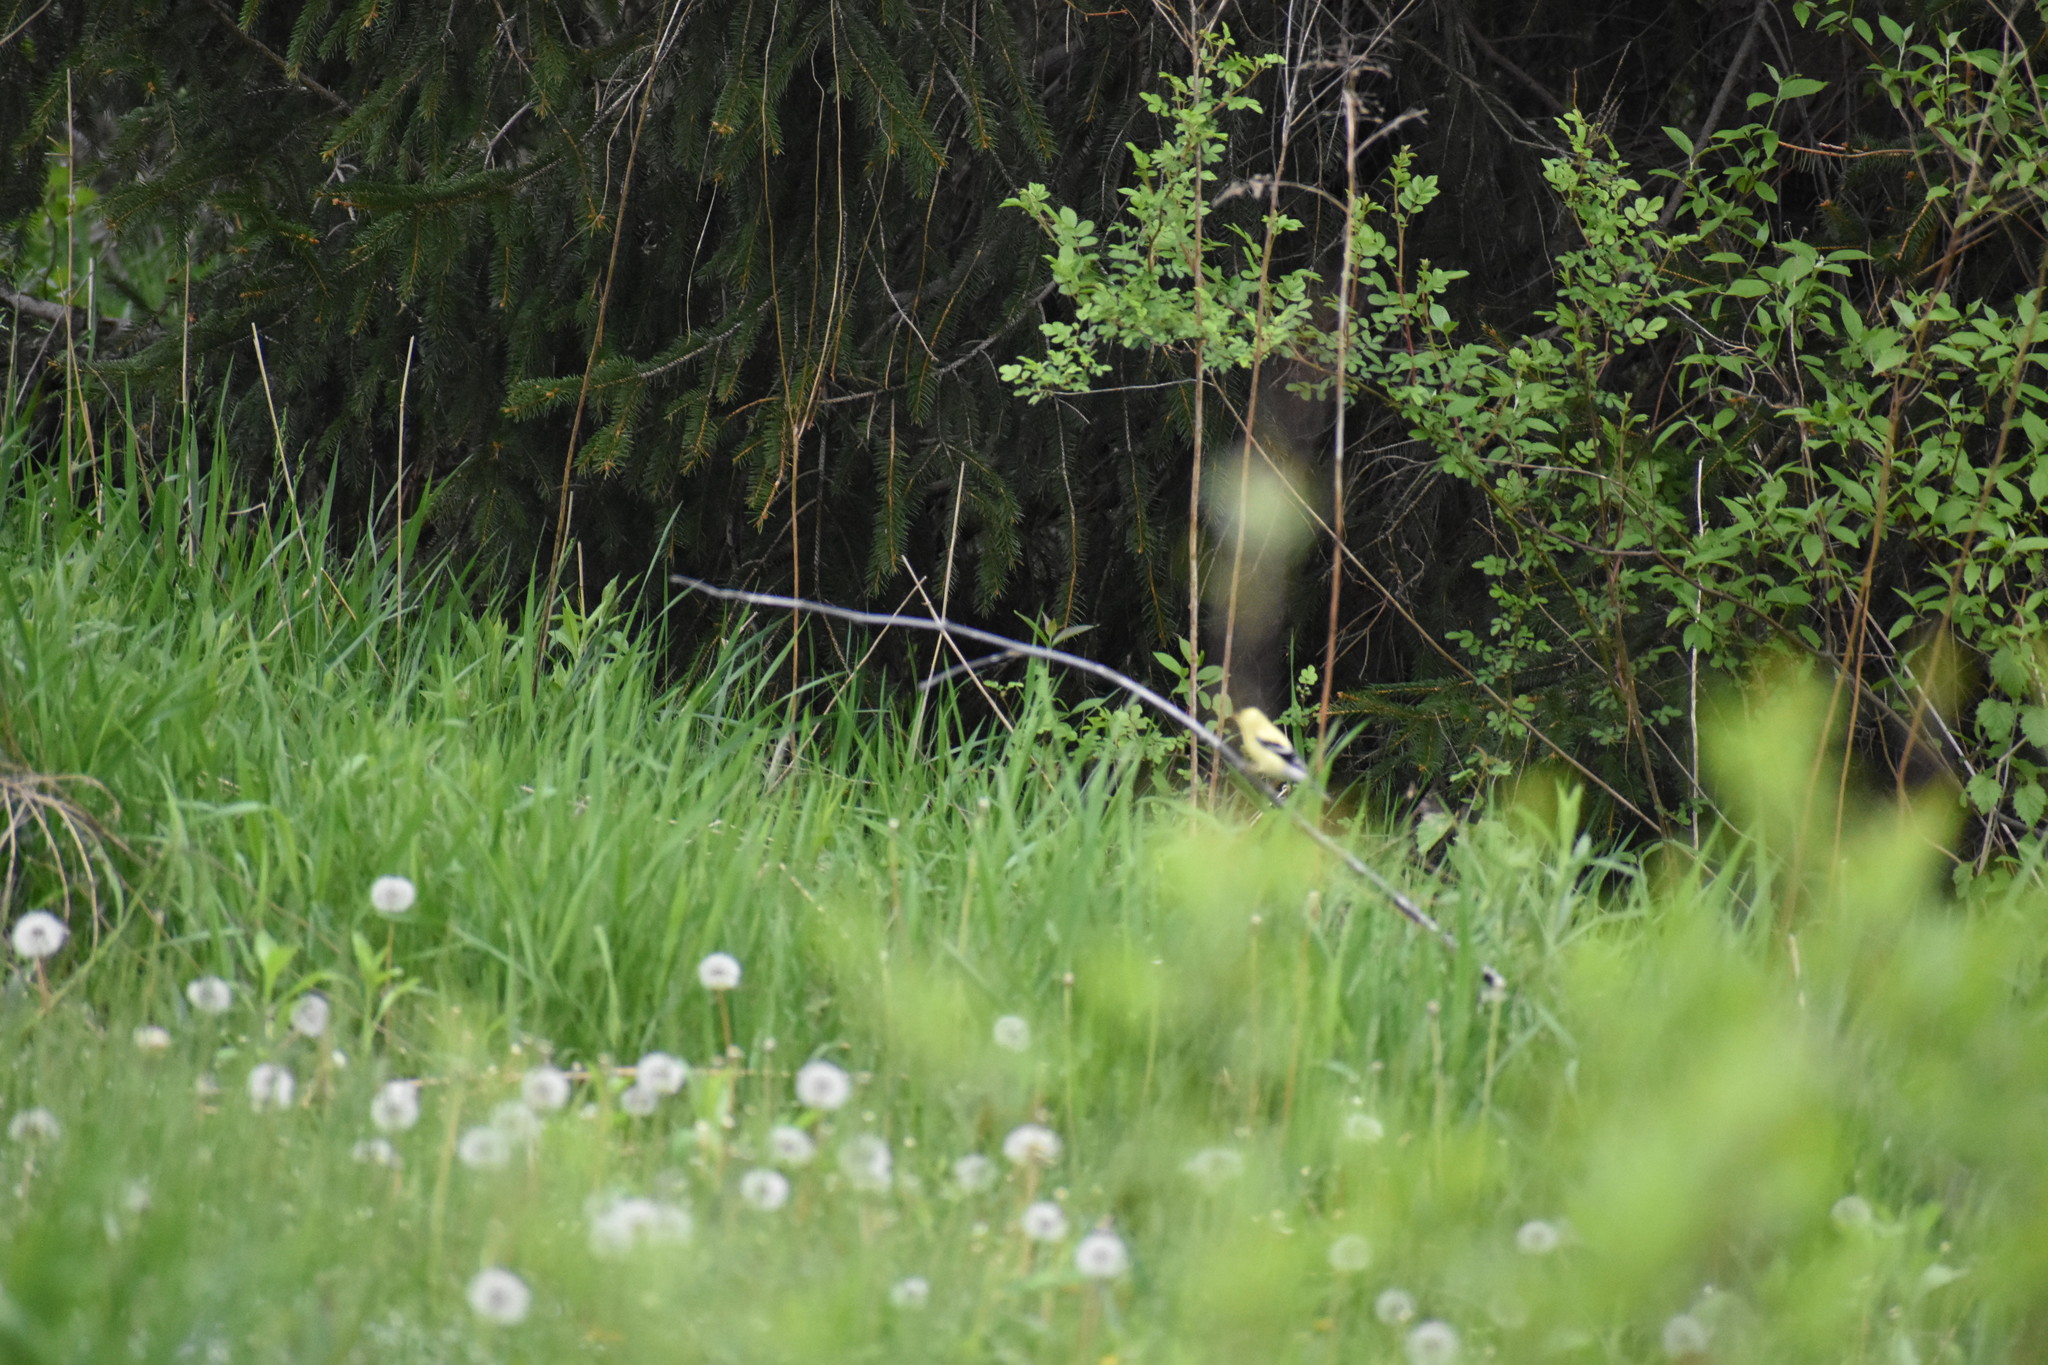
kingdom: Animalia
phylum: Chordata
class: Aves
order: Passeriformes
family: Fringillidae
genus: Spinus
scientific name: Spinus tristis
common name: American goldfinch
